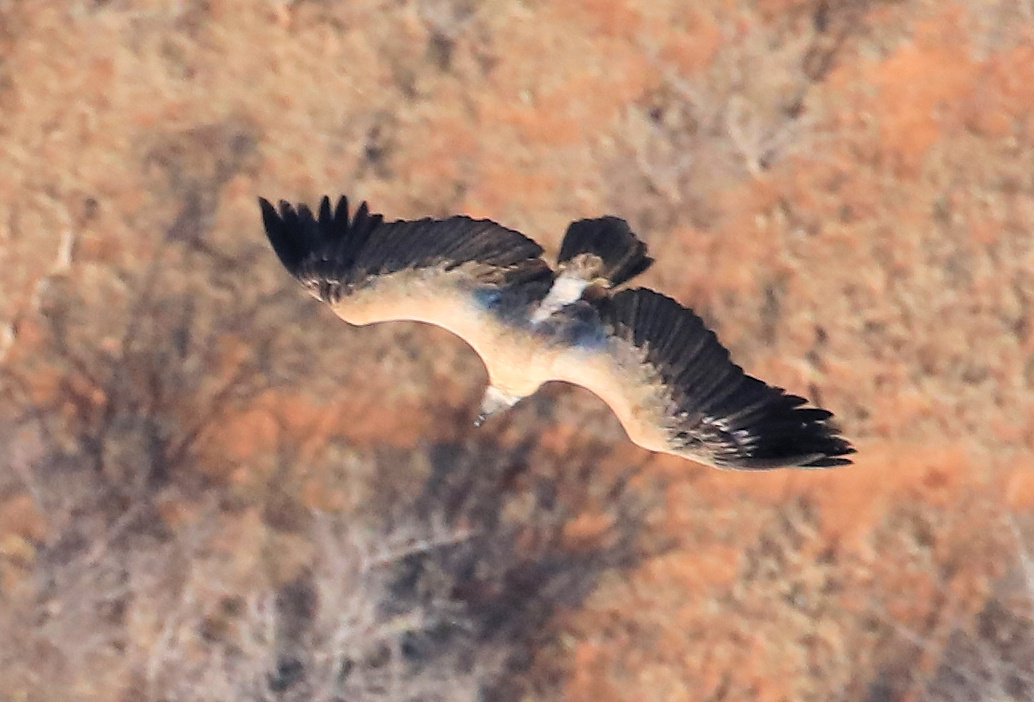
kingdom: Animalia
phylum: Chordata
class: Aves
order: Accipitriformes
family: Accipitridae
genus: Gyps
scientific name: Gyps africanus
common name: White-backed vulture
